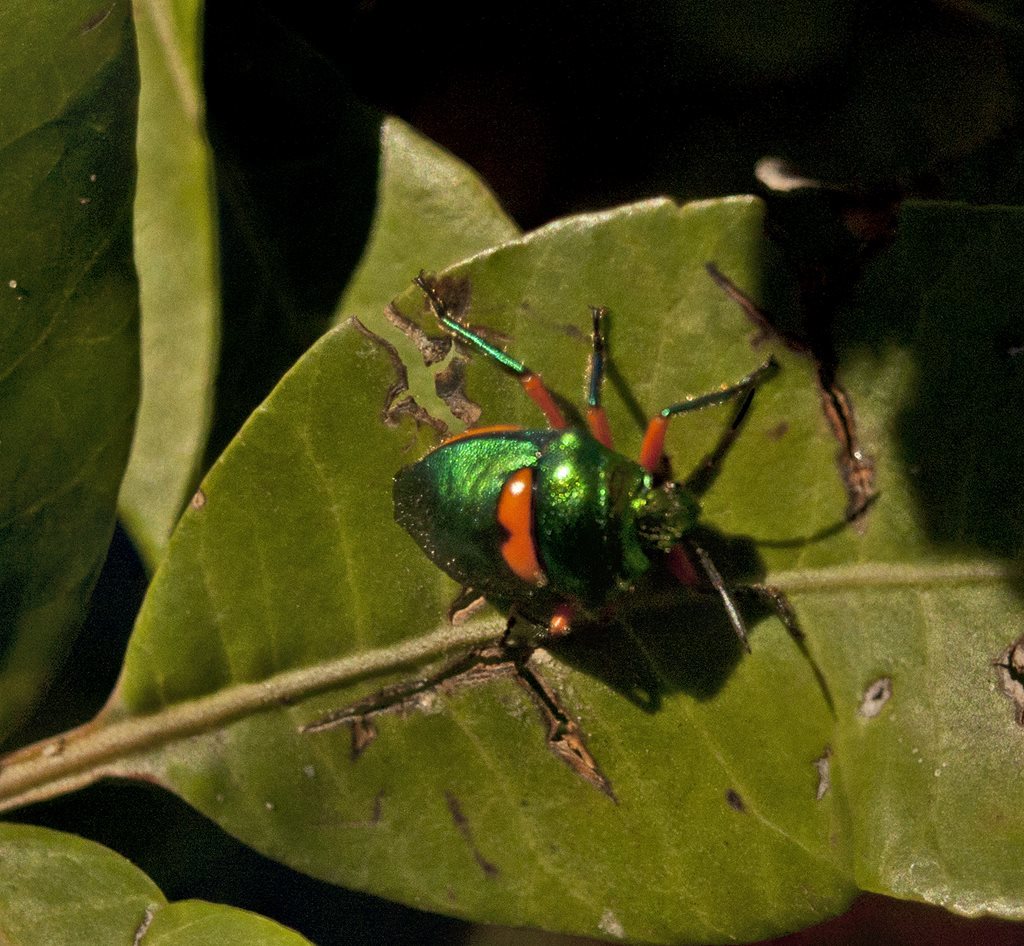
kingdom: Animalia
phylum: Arthropoda
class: Insecta
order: Hemiptera
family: Scutelleridae
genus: Lampromicra
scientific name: Lampromicra senator
